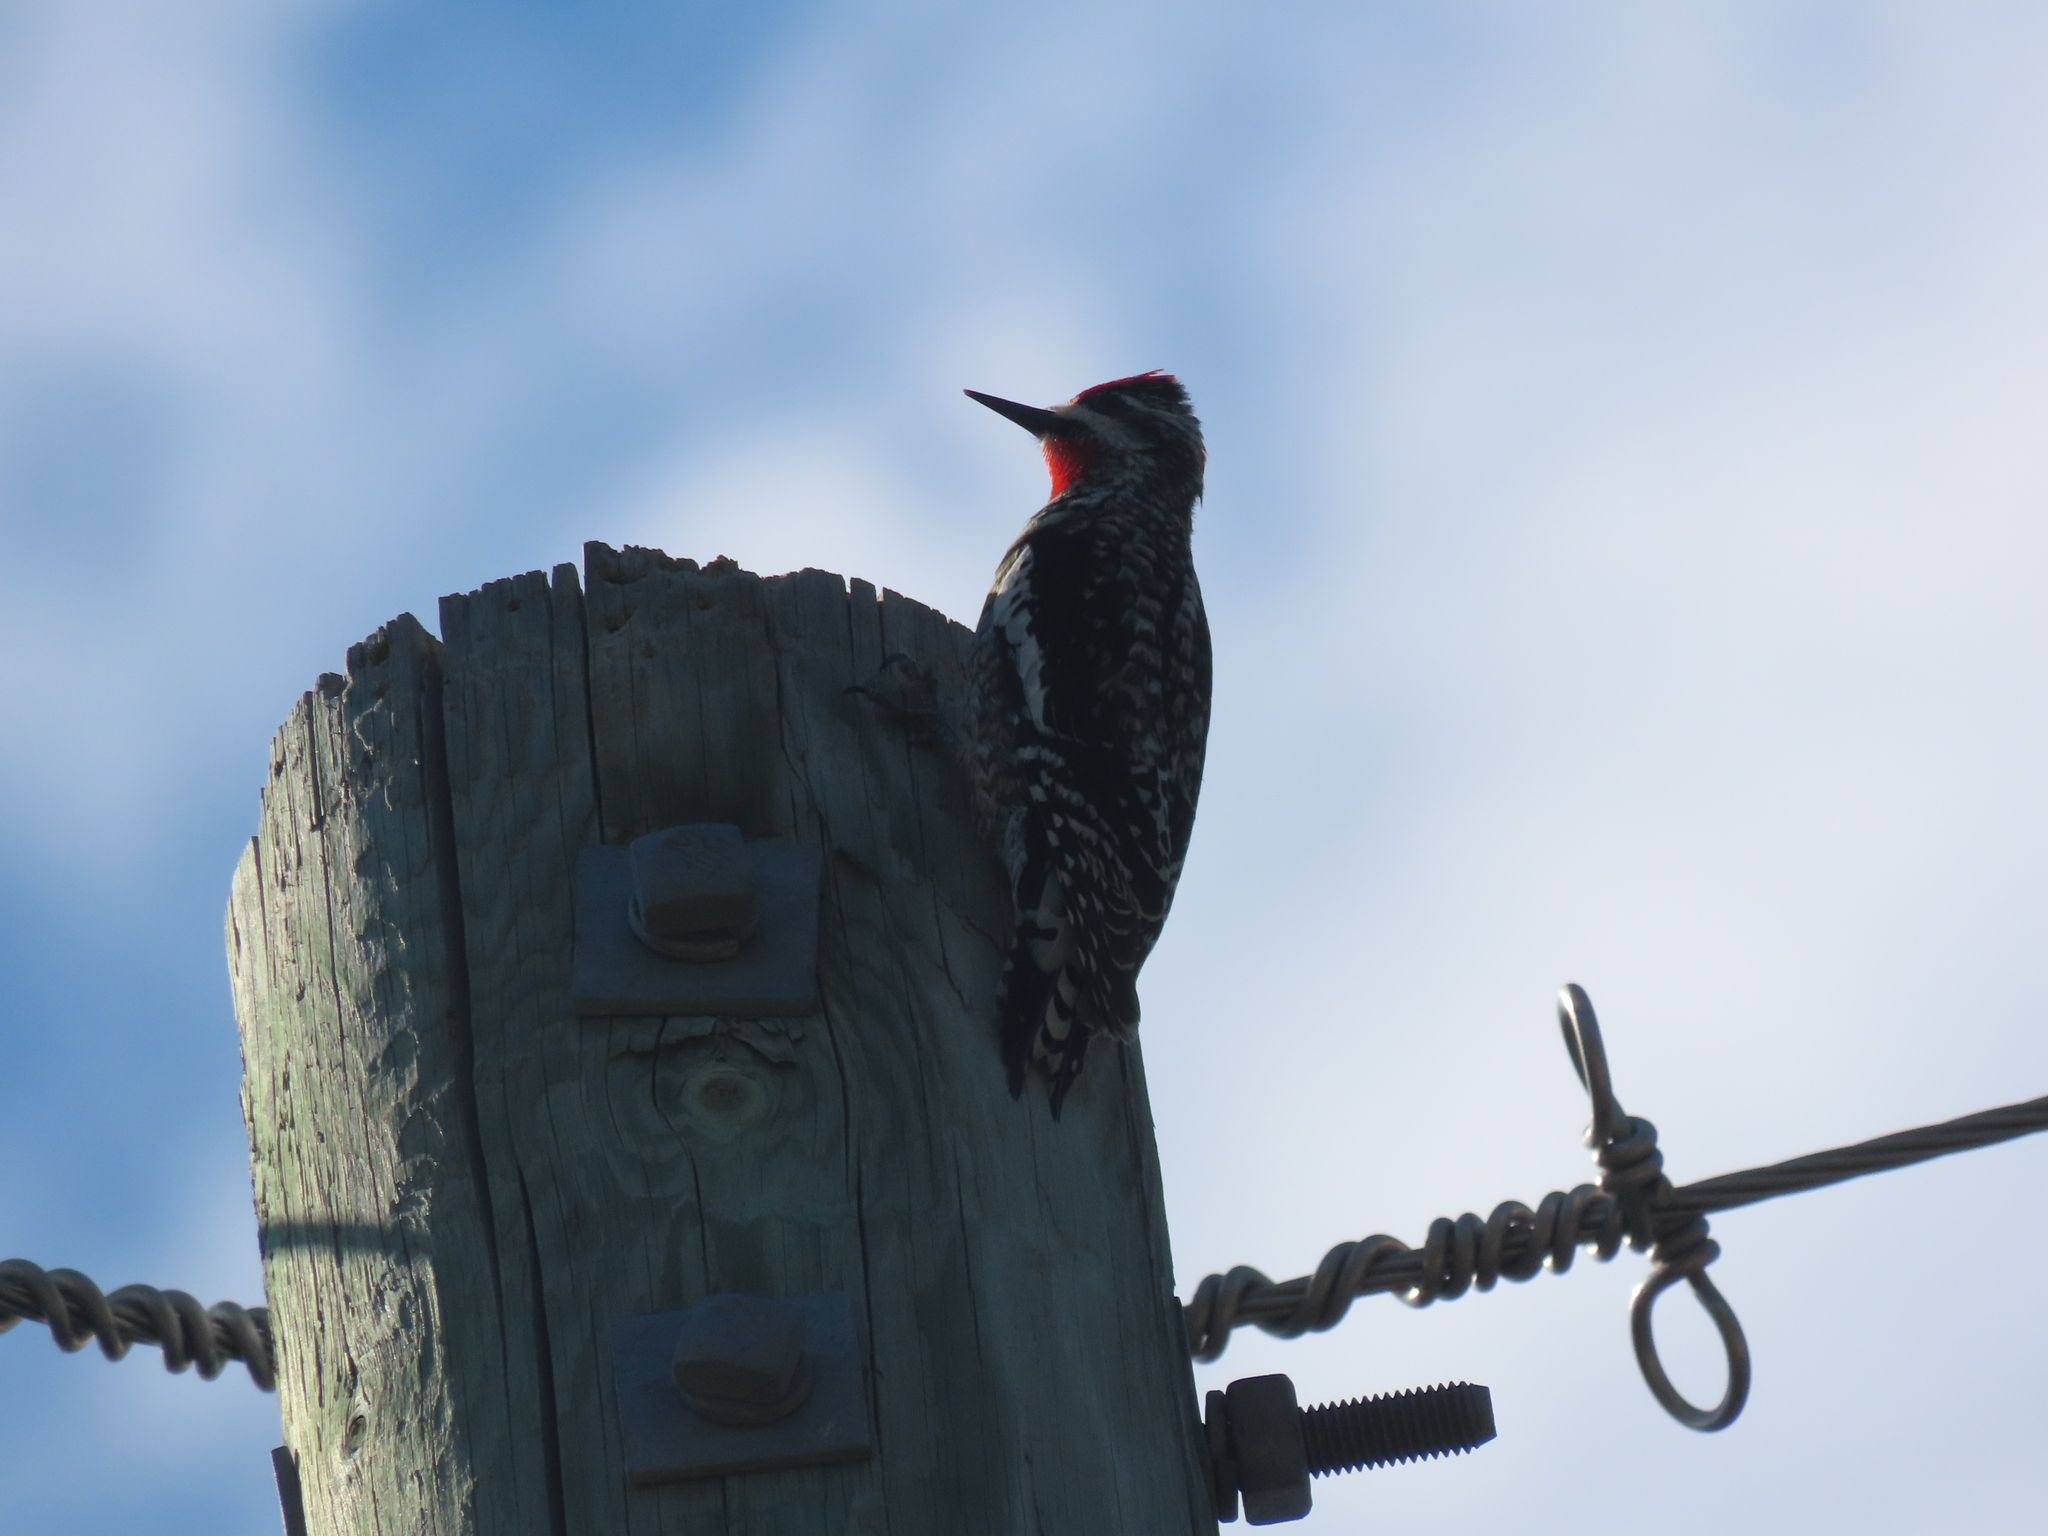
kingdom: Animalia
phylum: Chordata
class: Aves
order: Piciformes
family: Picidae
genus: Sphyrapicus
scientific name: Sphyrapicus nuchalis
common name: Red-naped sapsucker
